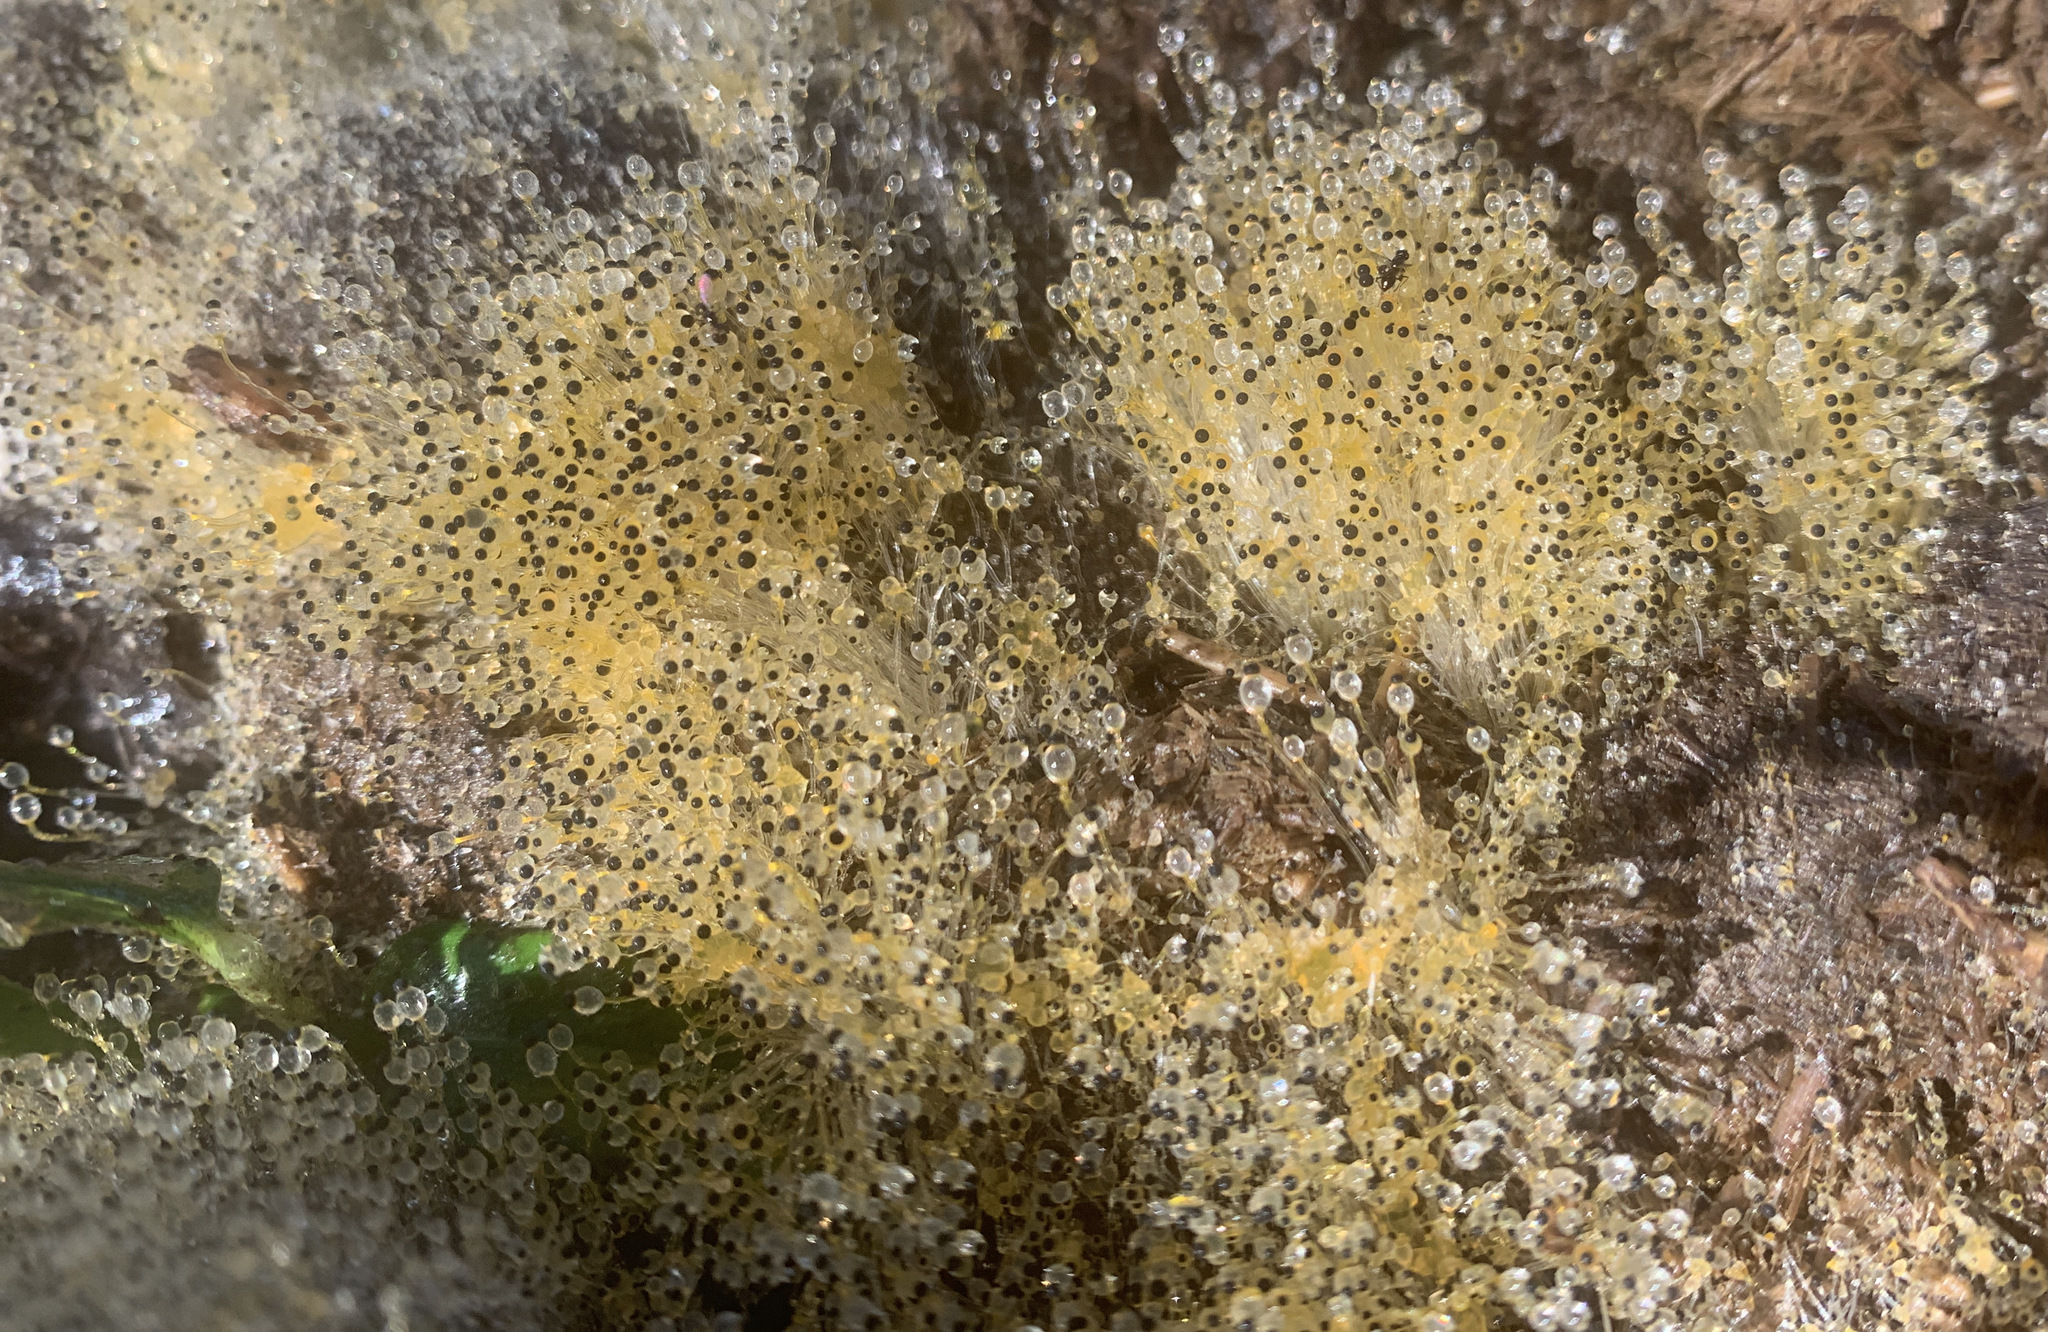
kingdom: Fungi
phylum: Mucoromycota
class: Mucoromycetes
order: Mucorales
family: Pilobolaceae
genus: Pilobolus
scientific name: Pilobolus
